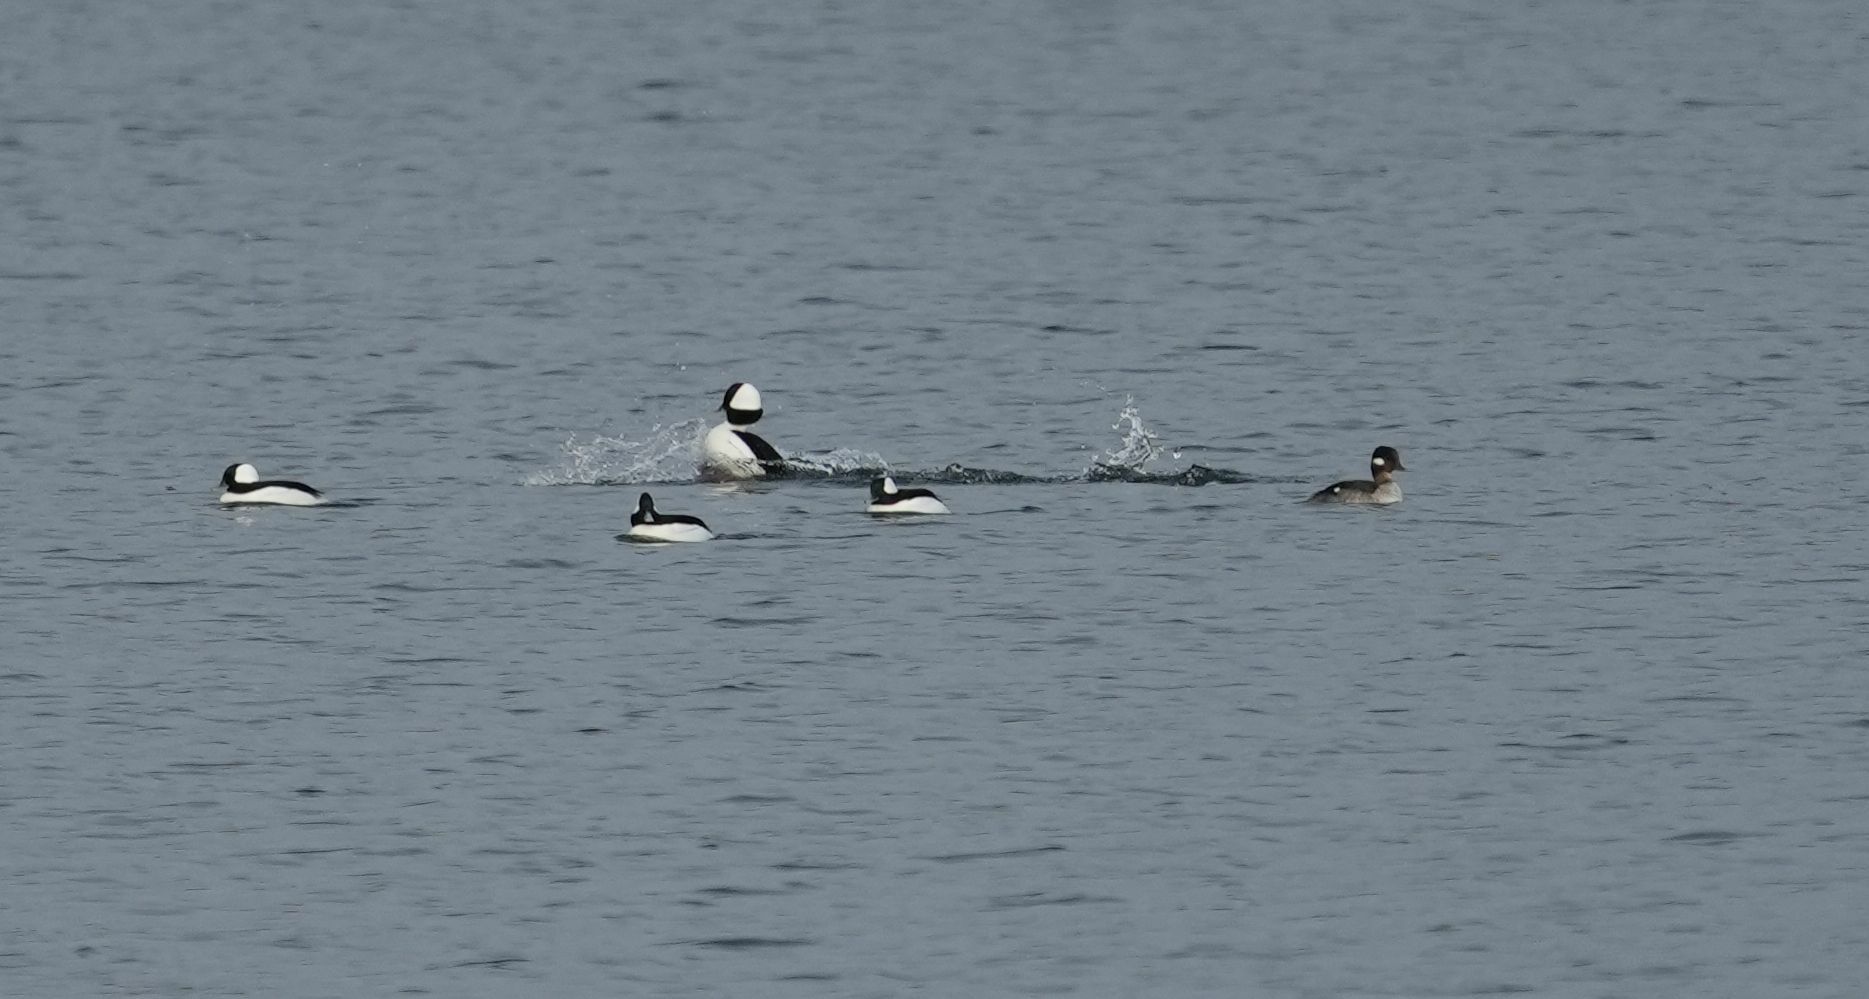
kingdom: Animalia
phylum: Chordata
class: Aves
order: Anseriformes
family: Anatidae
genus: Bucephala
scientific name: Bucephala albeola
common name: Bufflehead
